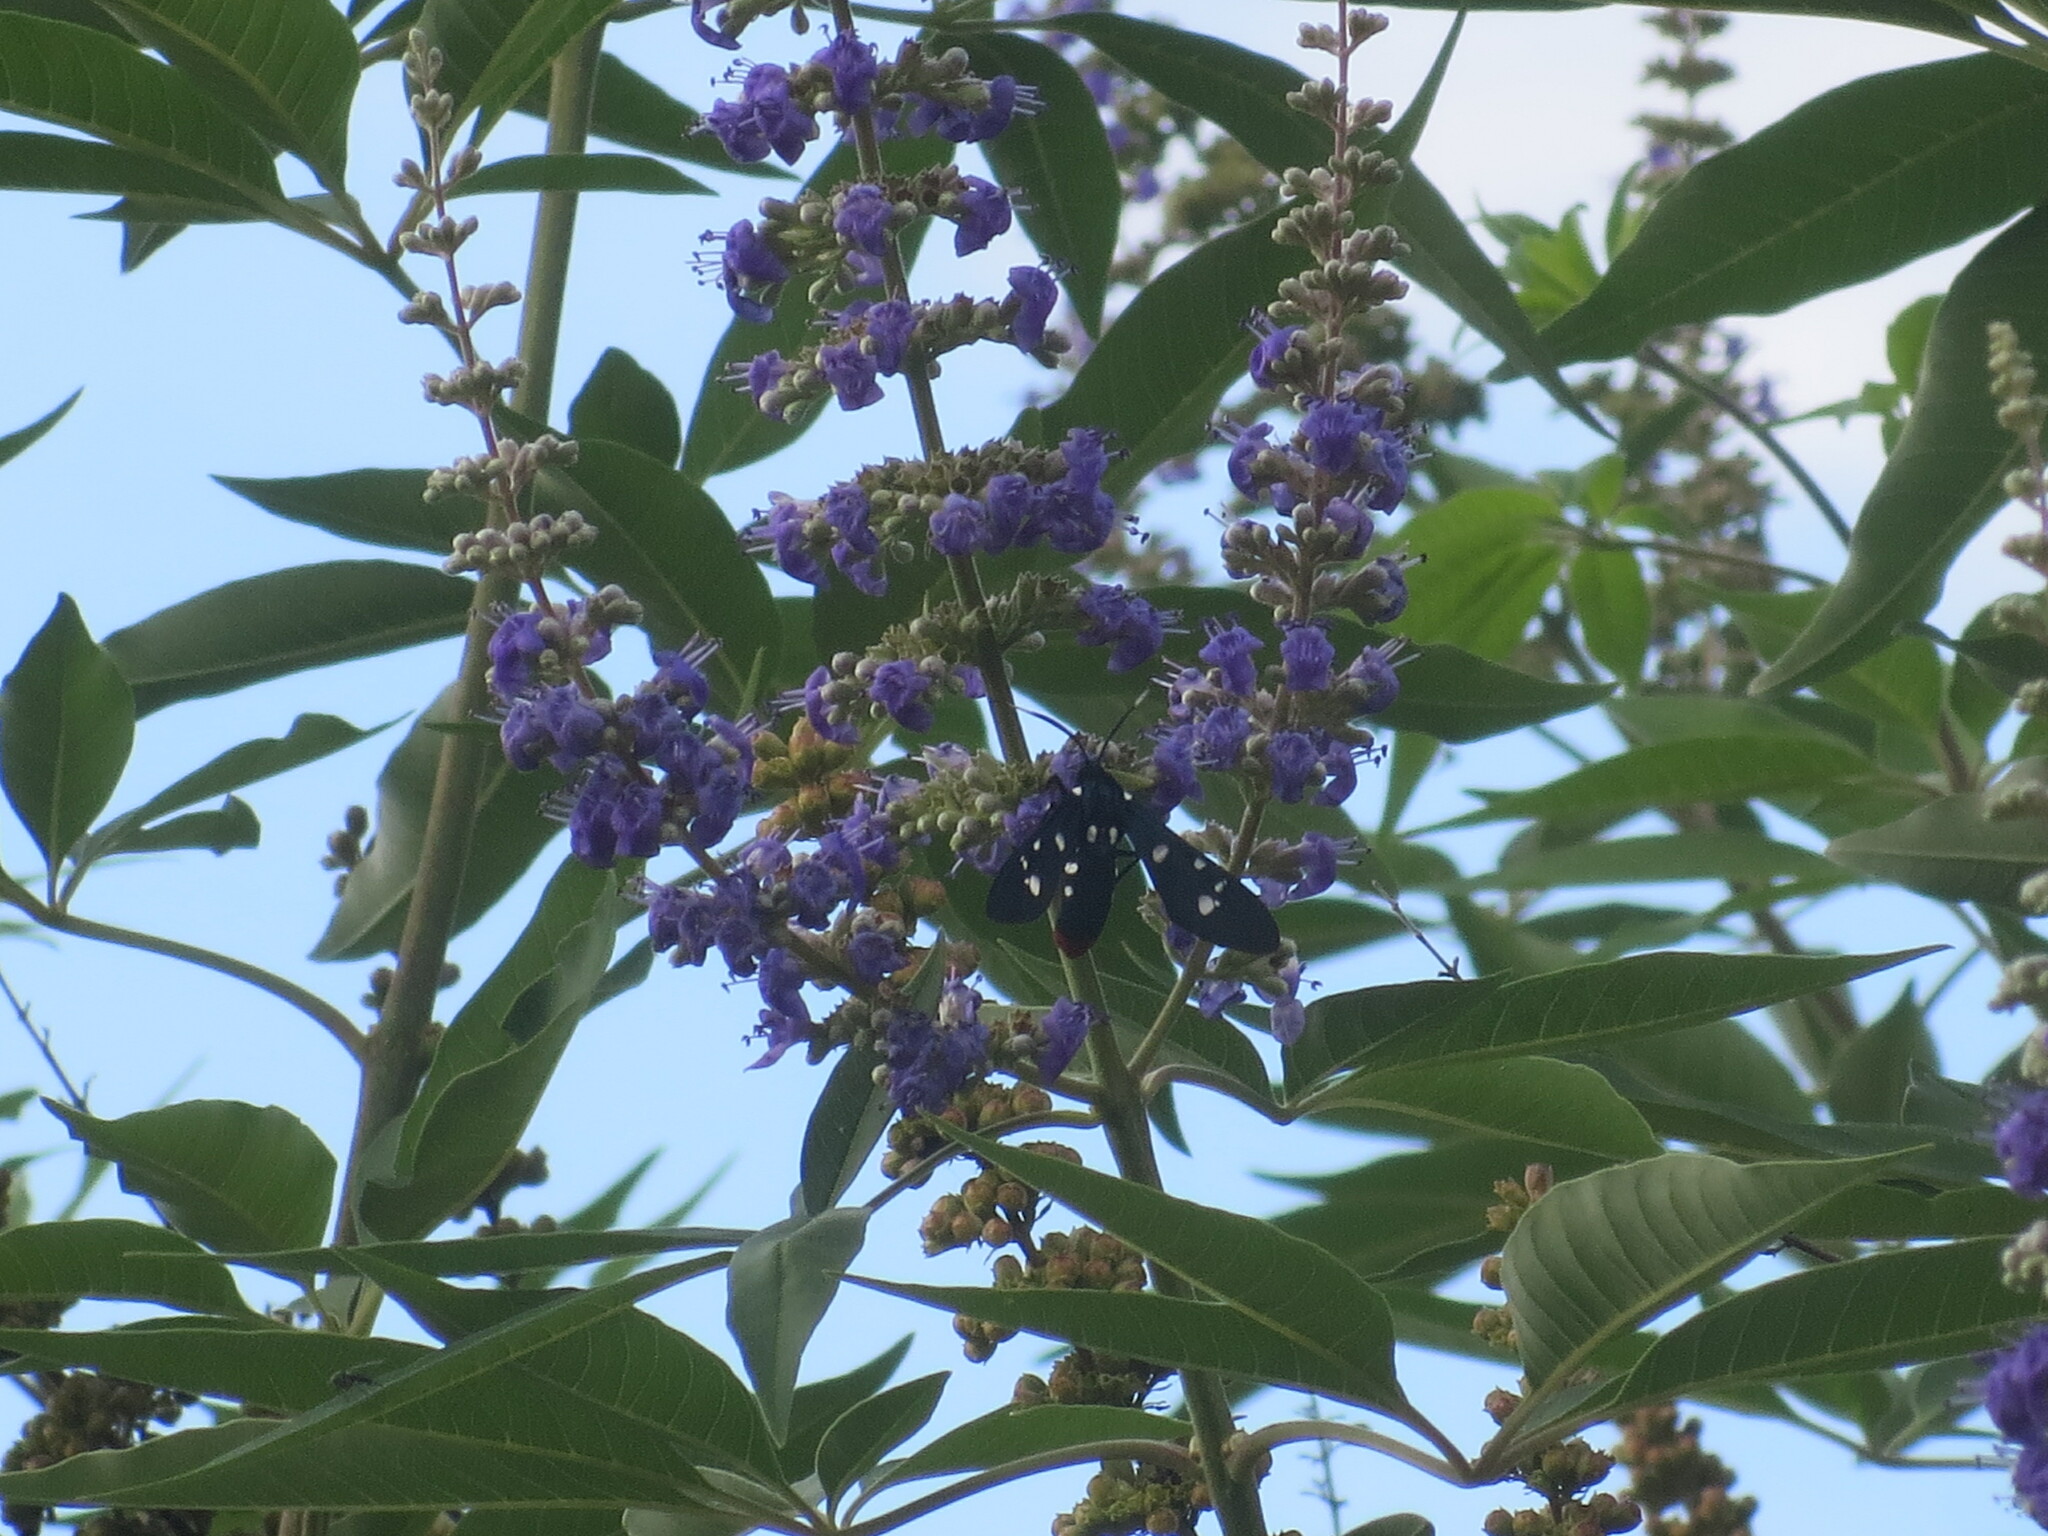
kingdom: Animalia
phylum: Arthropoda
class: Insecta
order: Lepidoptera
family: Erebidae
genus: Syntomeida
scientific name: Syntomeida epilais
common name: Polka-dot wasp moth
